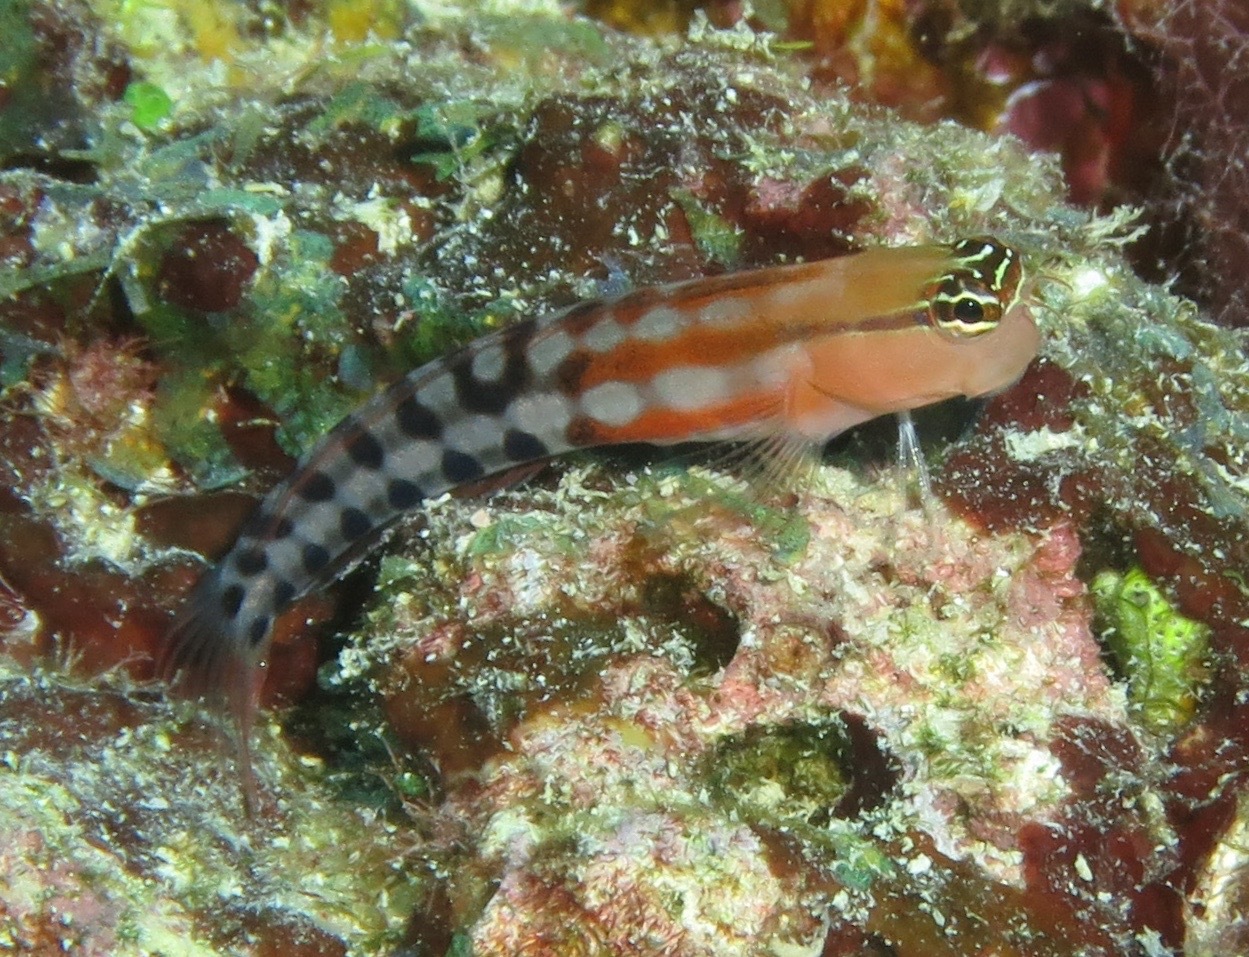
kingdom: Animalia
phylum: Chordata
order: Perciformes
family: Blenniidae
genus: Ecsenius
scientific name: Ecsenius fijiensis
